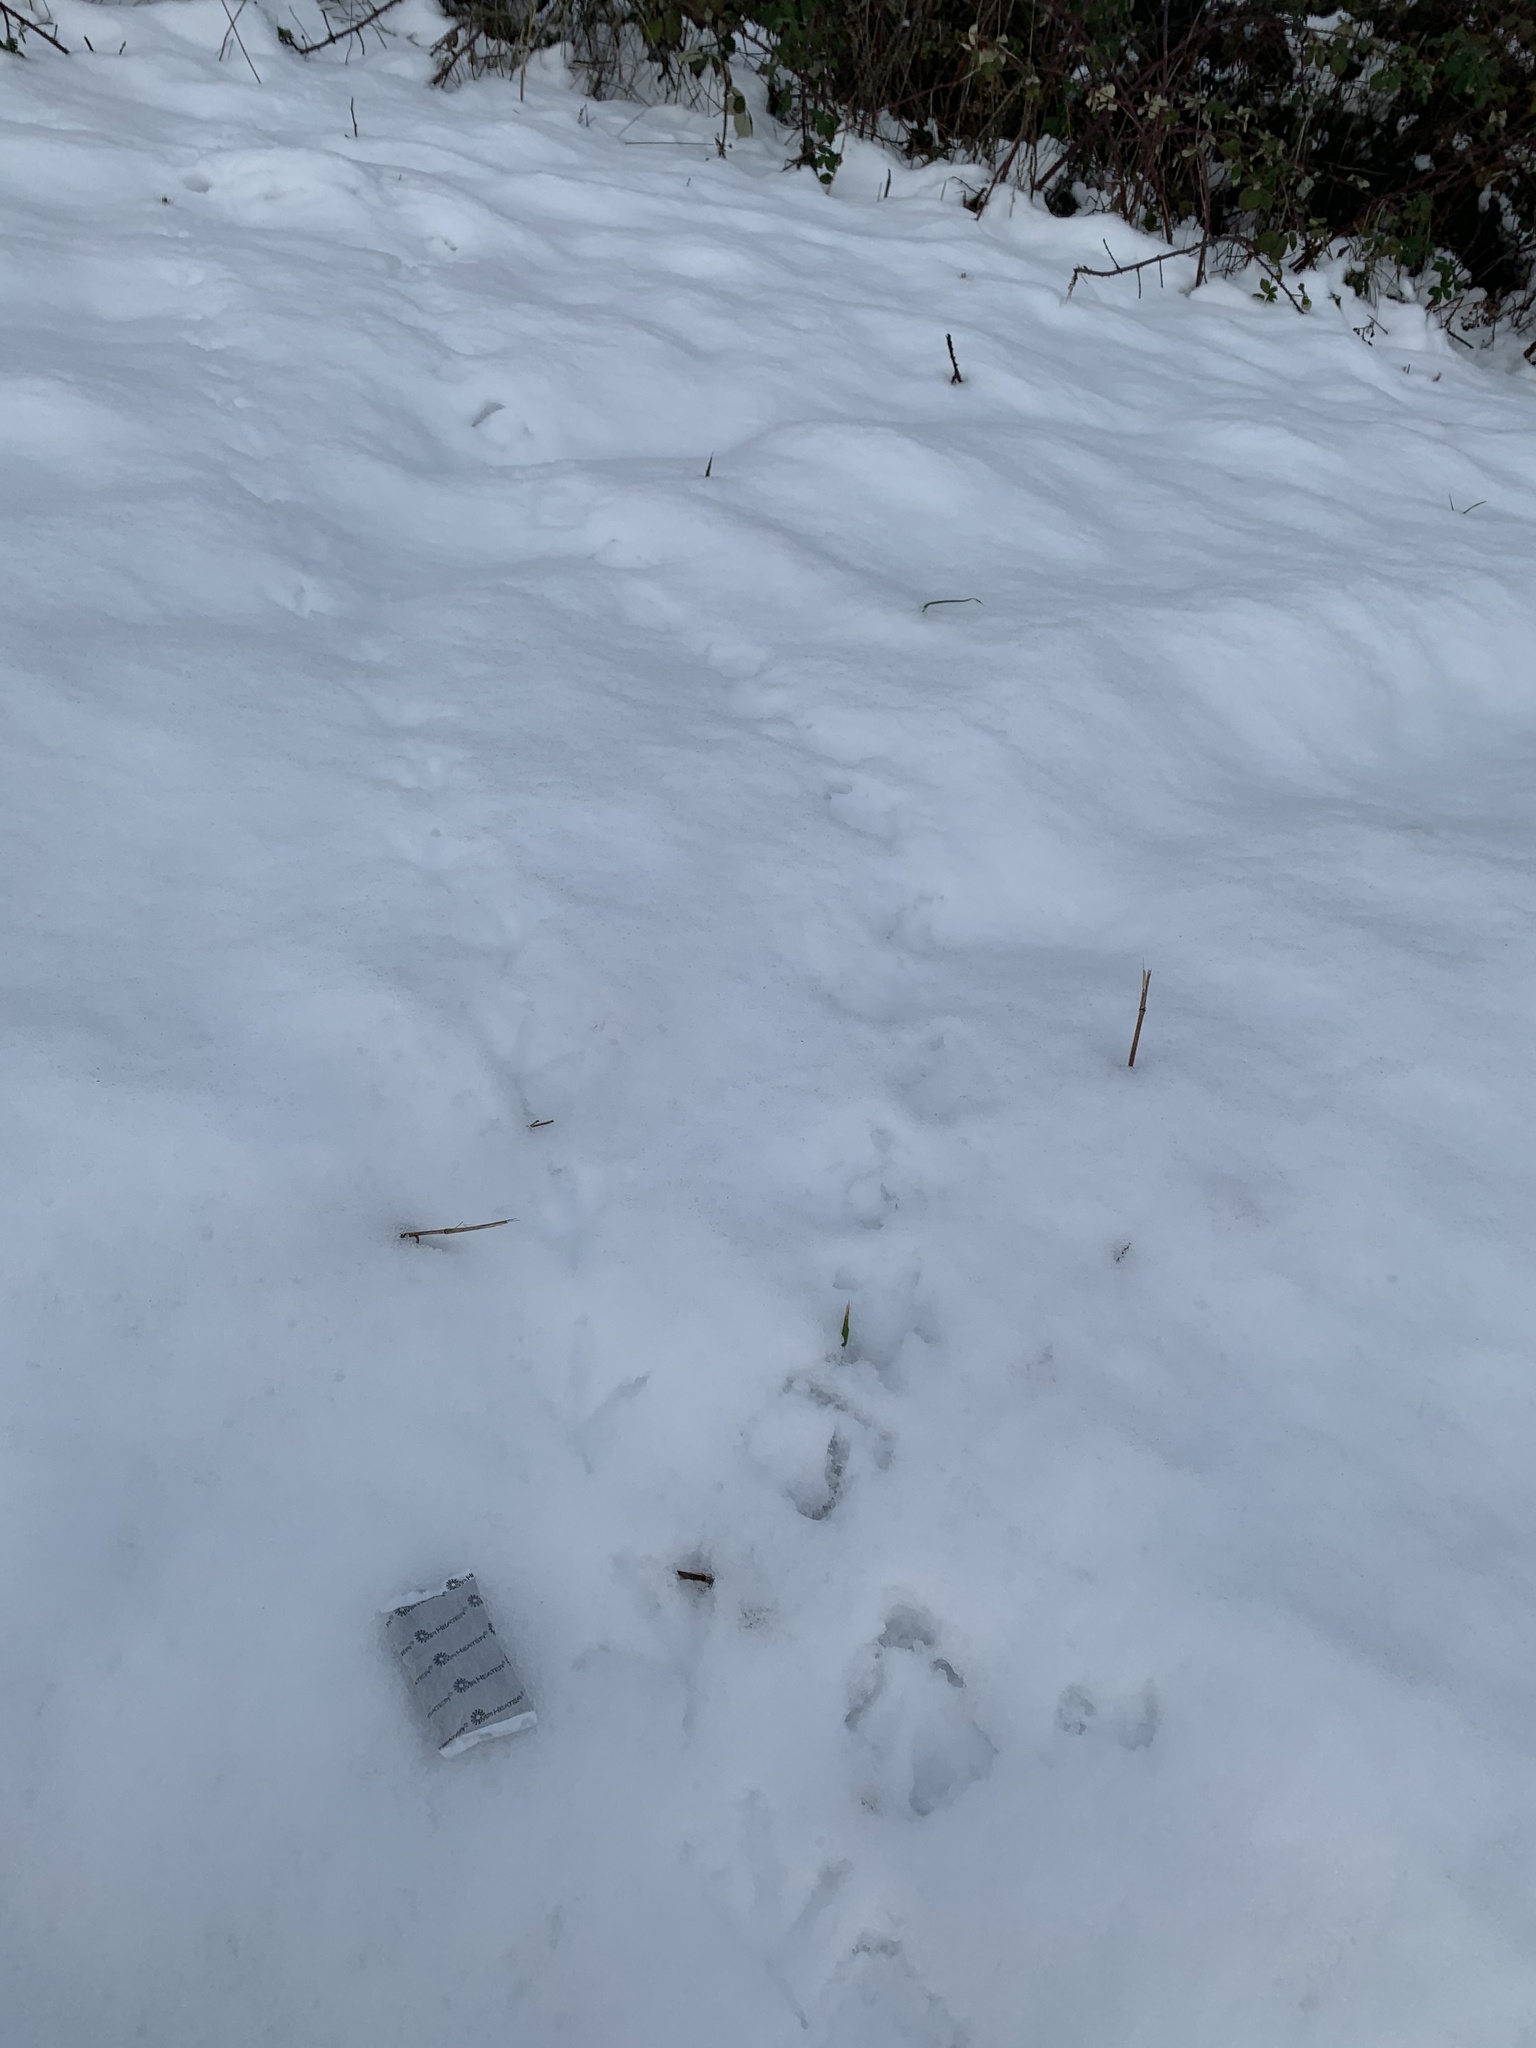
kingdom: Animalia
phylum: Chordata
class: Aves
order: Gruiformes
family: Rallidae
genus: Fulica
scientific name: Fulica americana
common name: American coot
